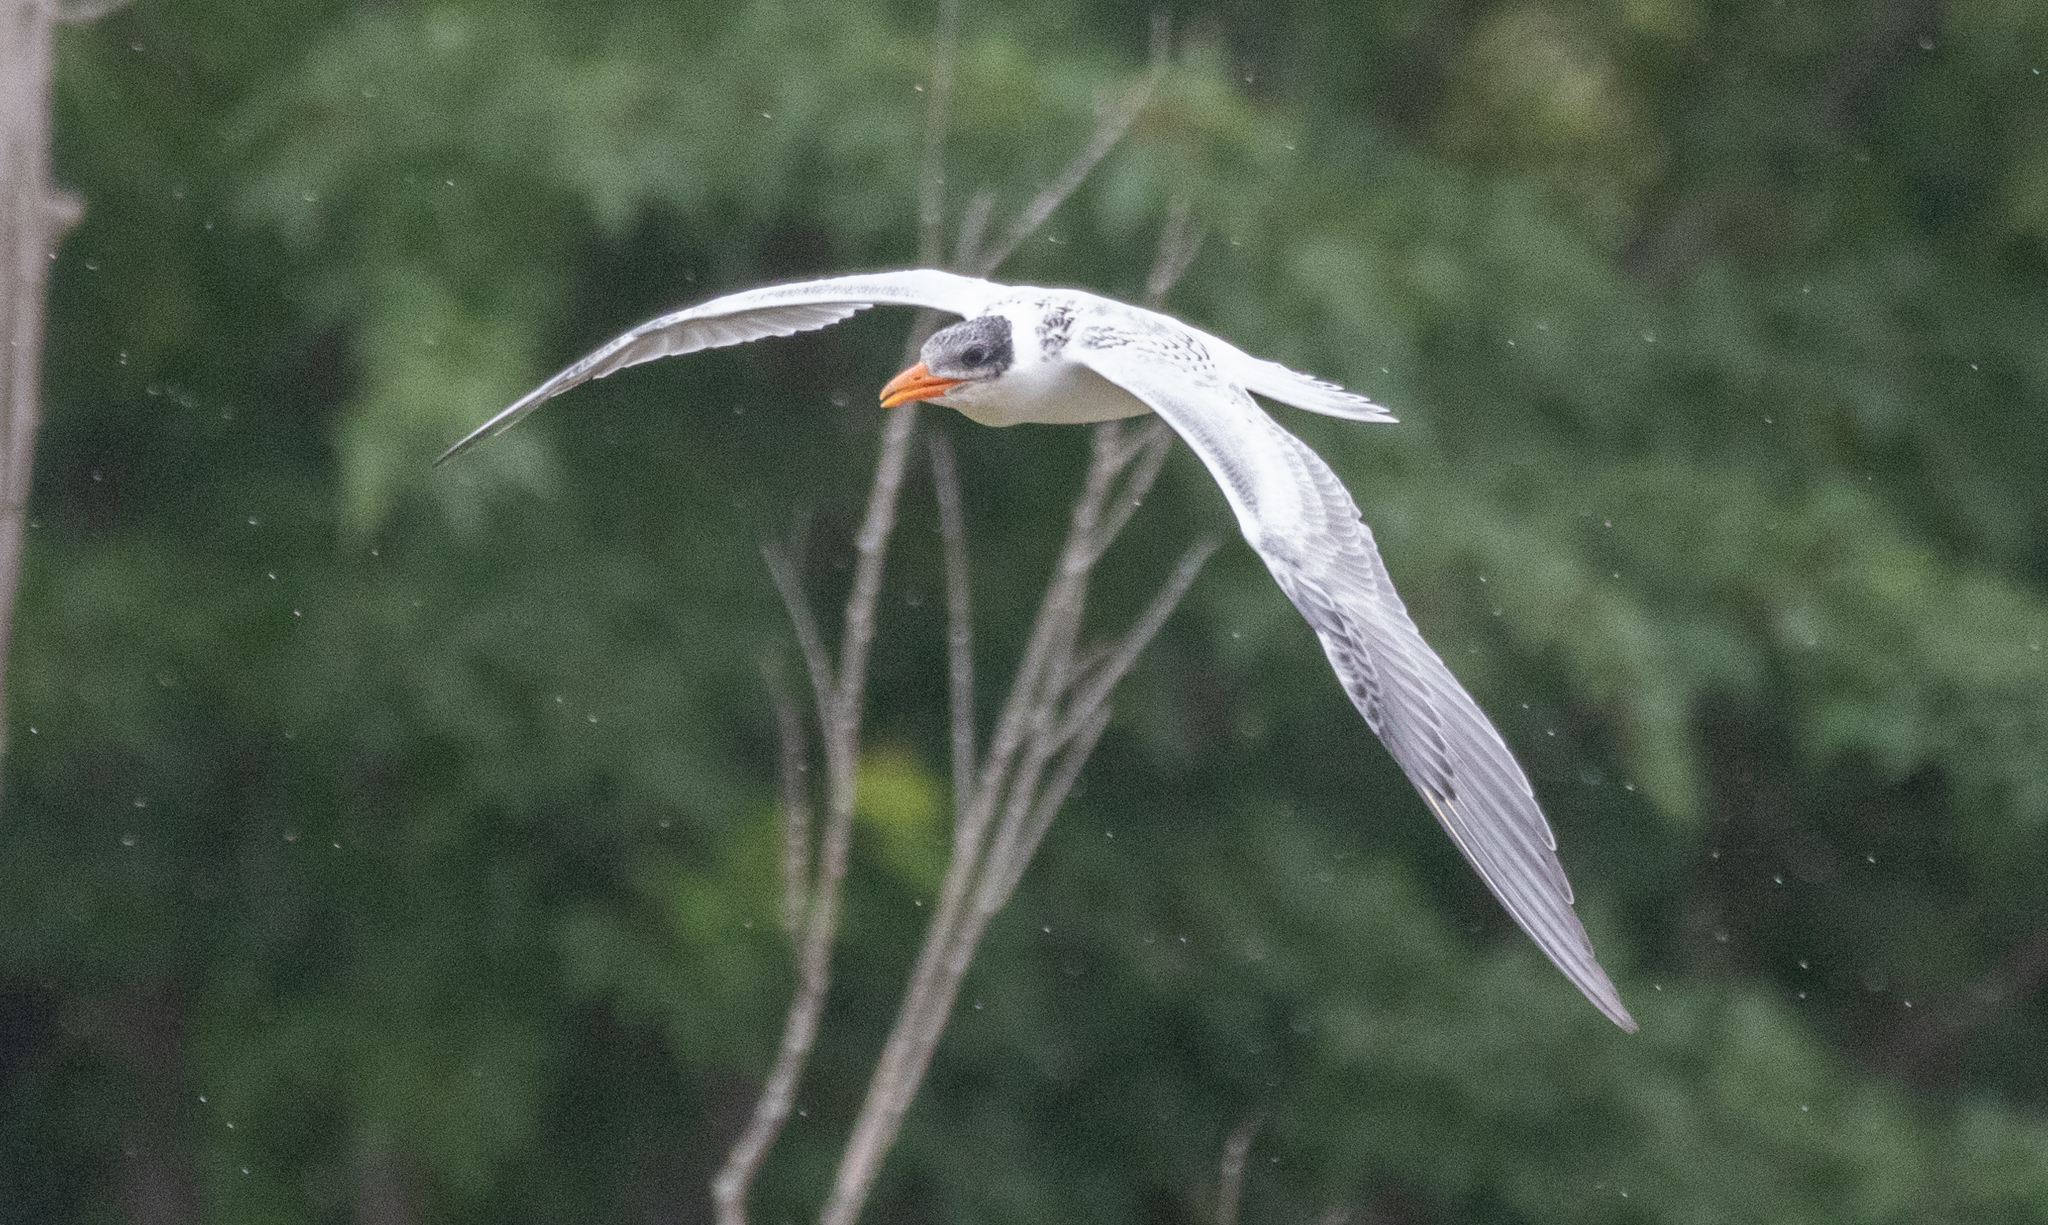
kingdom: Animalia
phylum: Chordata
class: Aves
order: Charadriiformes
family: Laridae
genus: Hydroprogne
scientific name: Hydroprogne caspia
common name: Caspian tern
